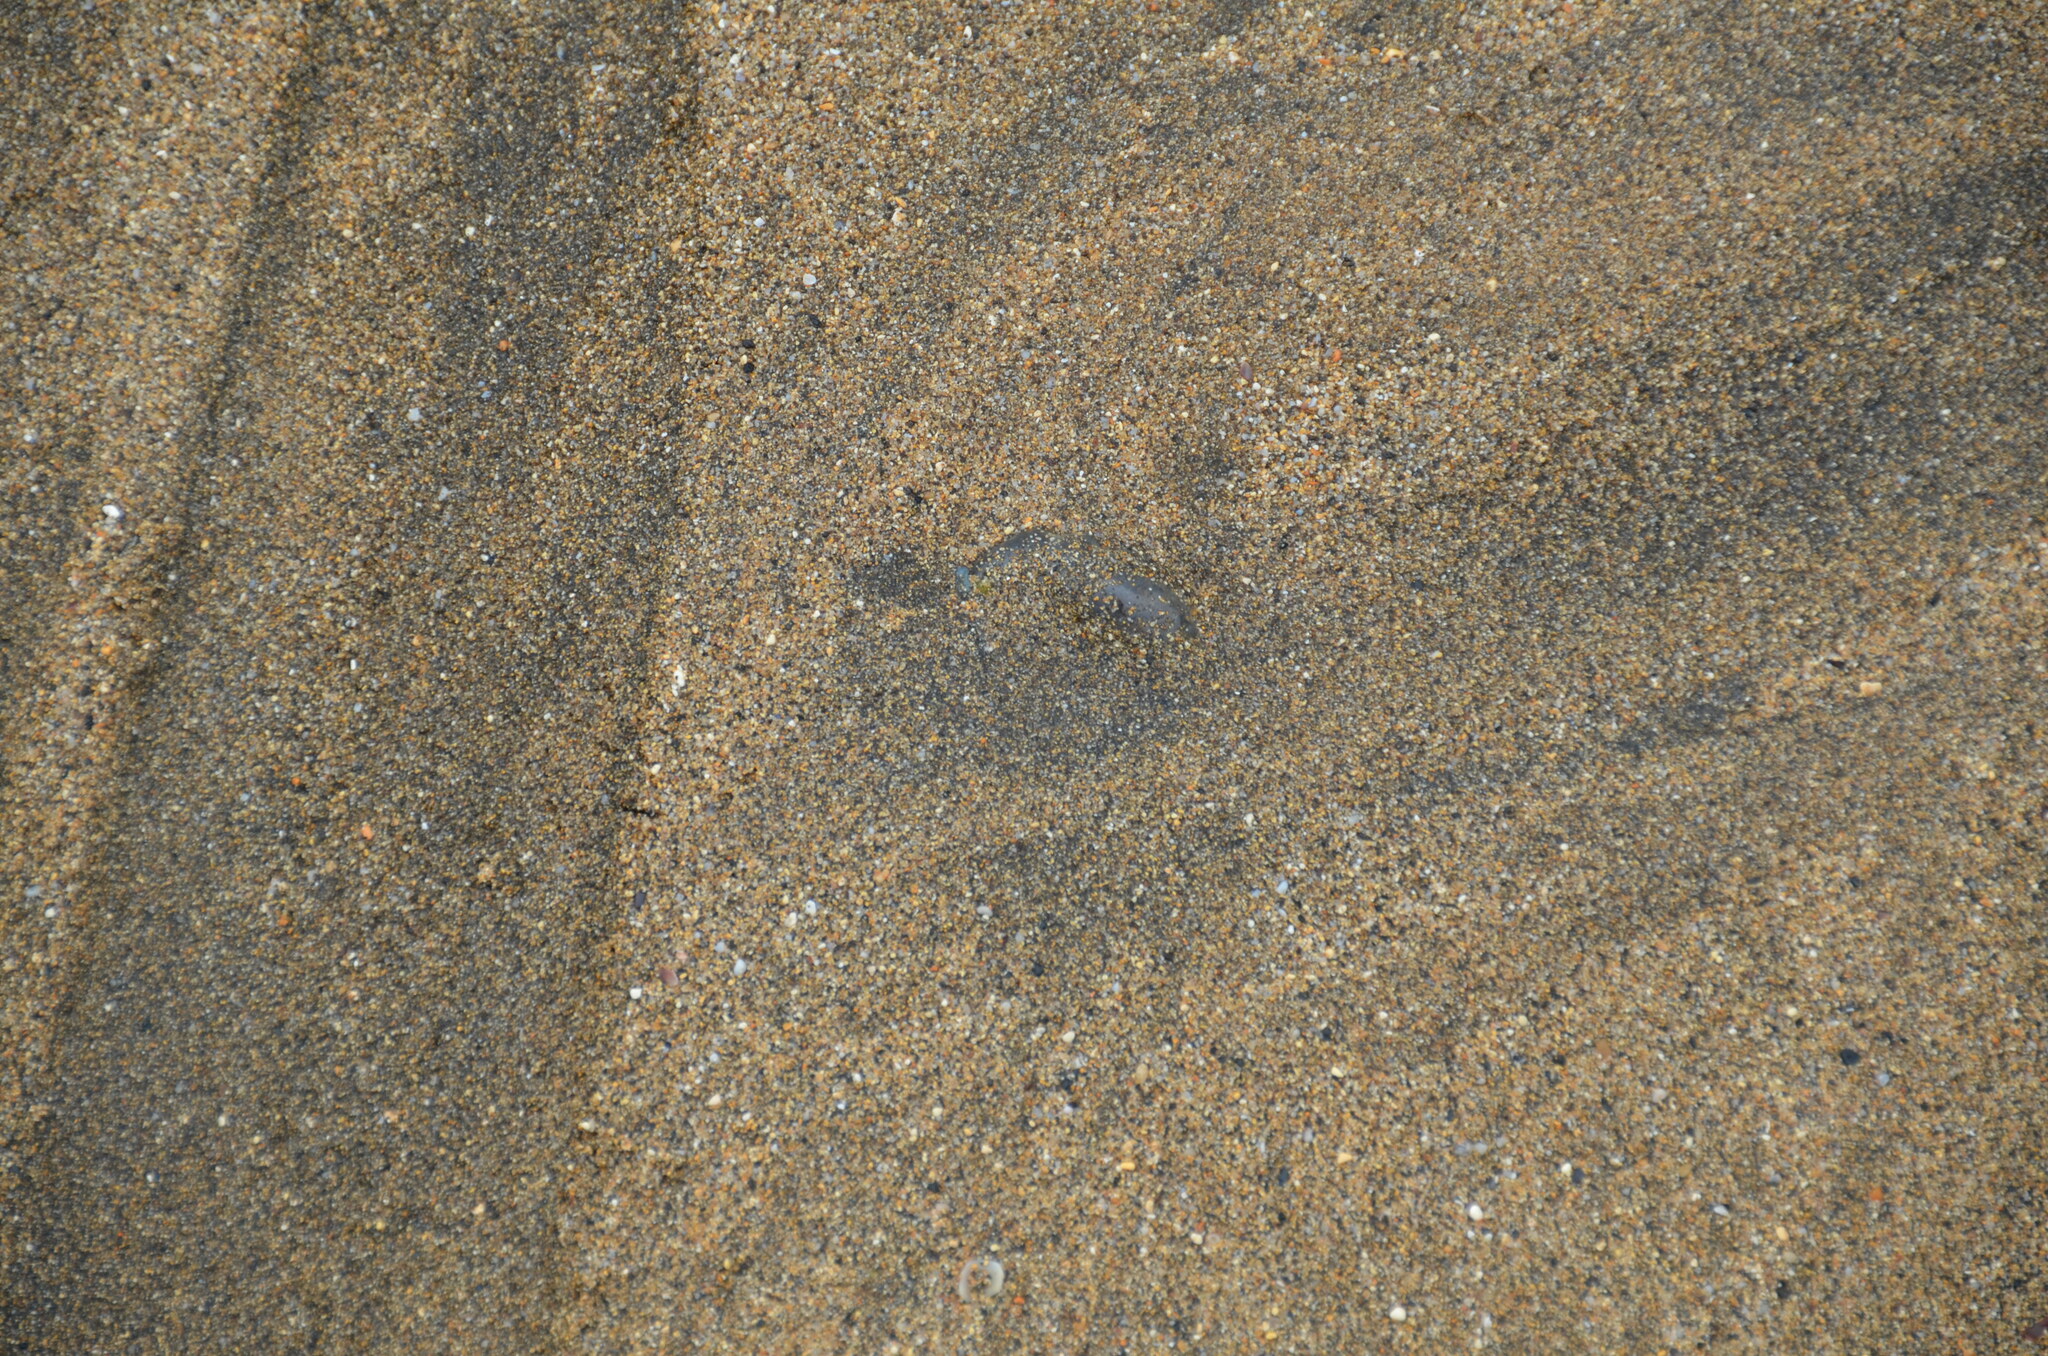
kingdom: Animalia
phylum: Cnidaria
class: Hydrozoa
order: Siphonophorae
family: Physaliidae
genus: Physalia
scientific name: Physalia physalis
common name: Portuguese man-of-war
